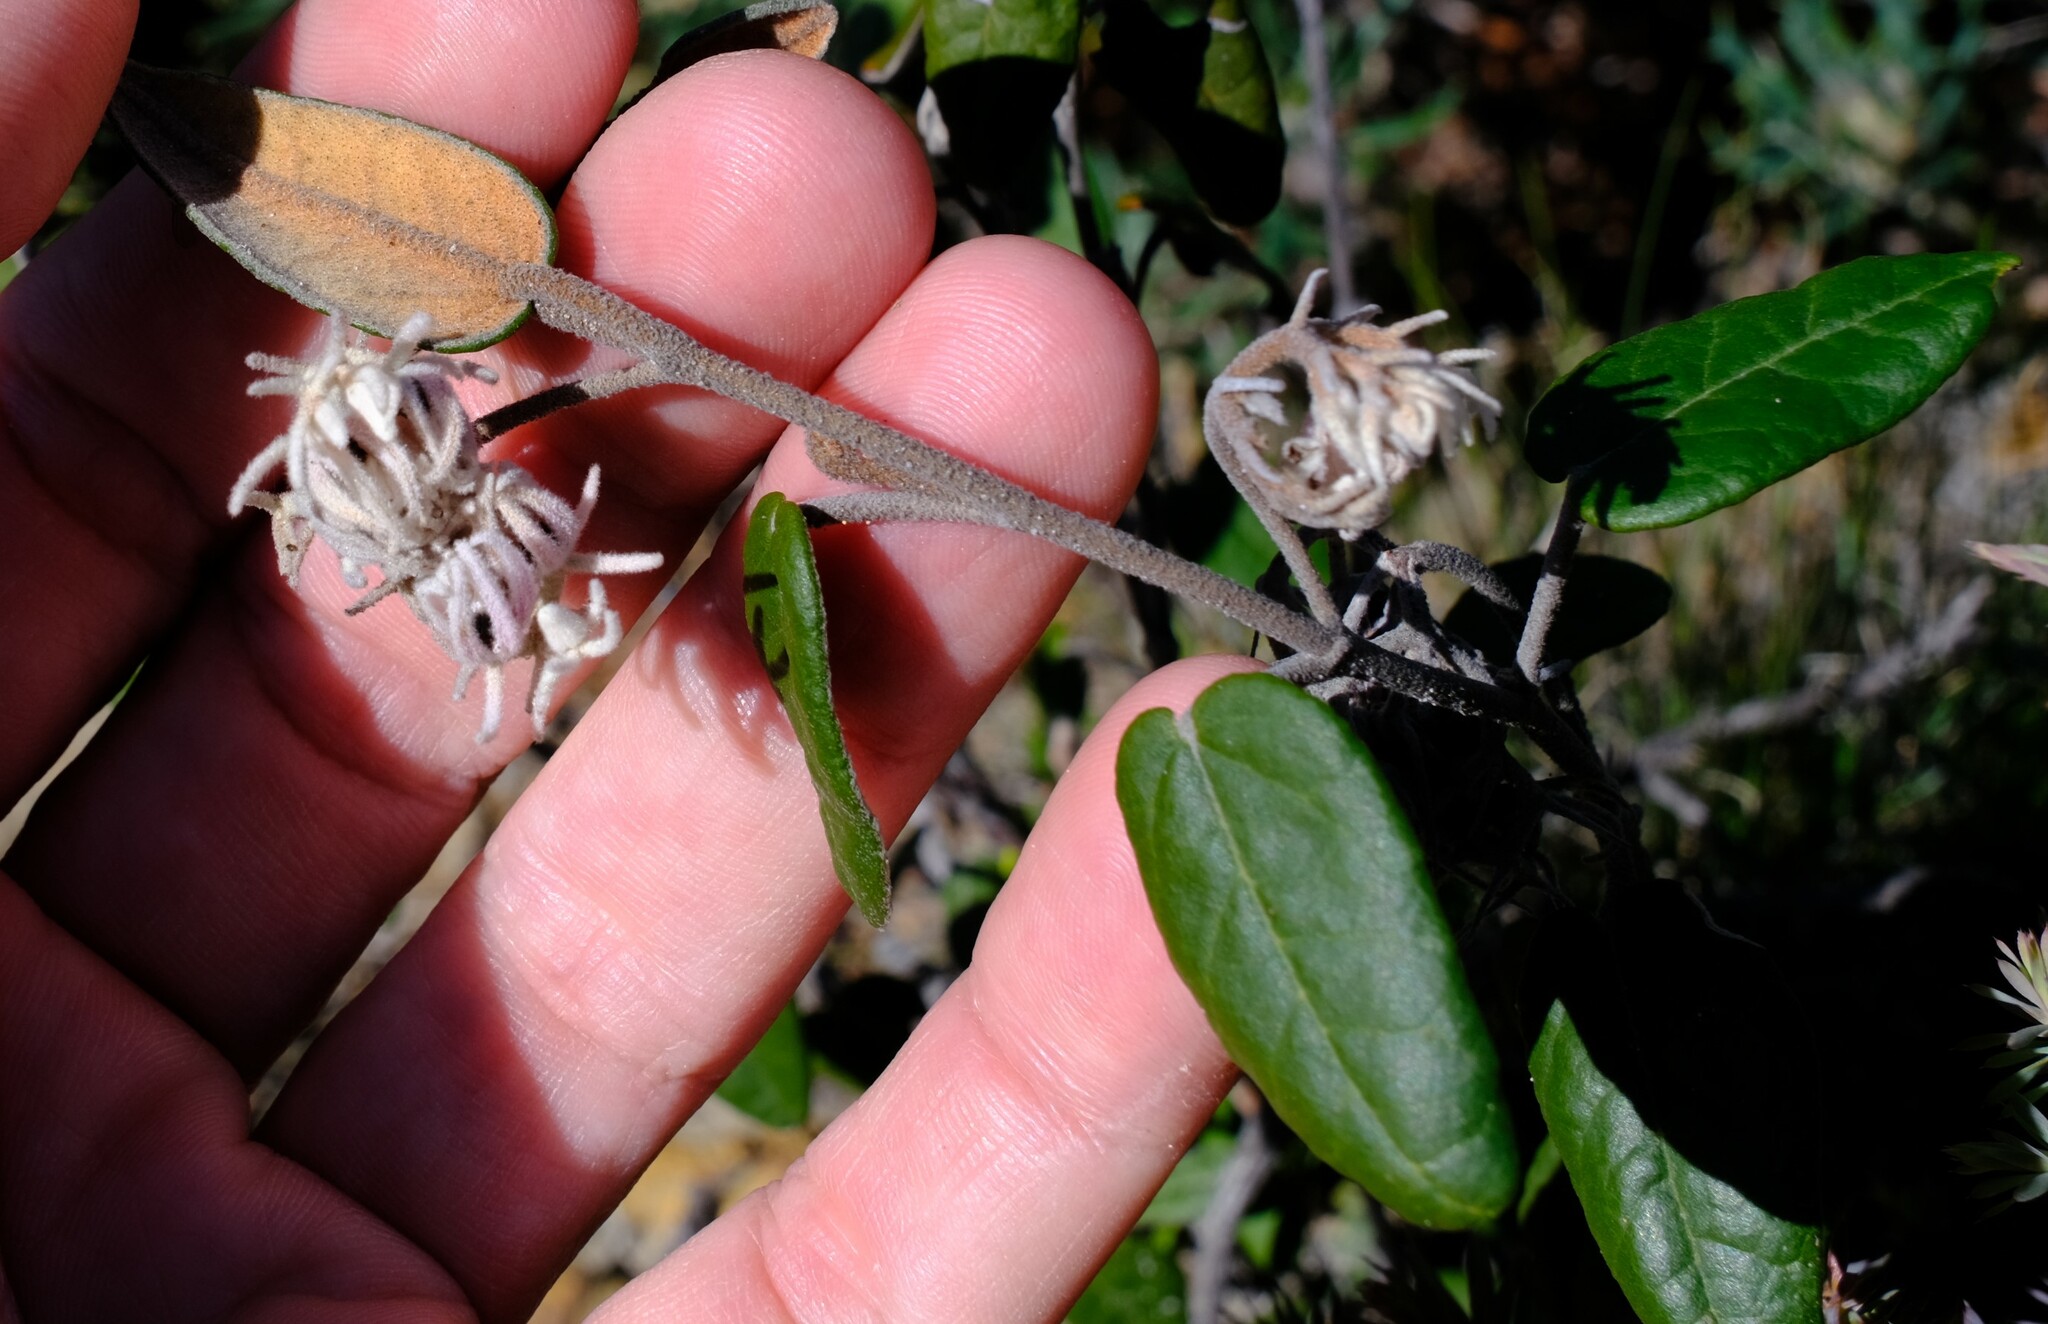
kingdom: Plantae
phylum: Tracheophyta
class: Magnoliopsida
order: Malvales
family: Malvaceae
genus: Lasiopetalum
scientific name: Lasiopetalum drummondii
